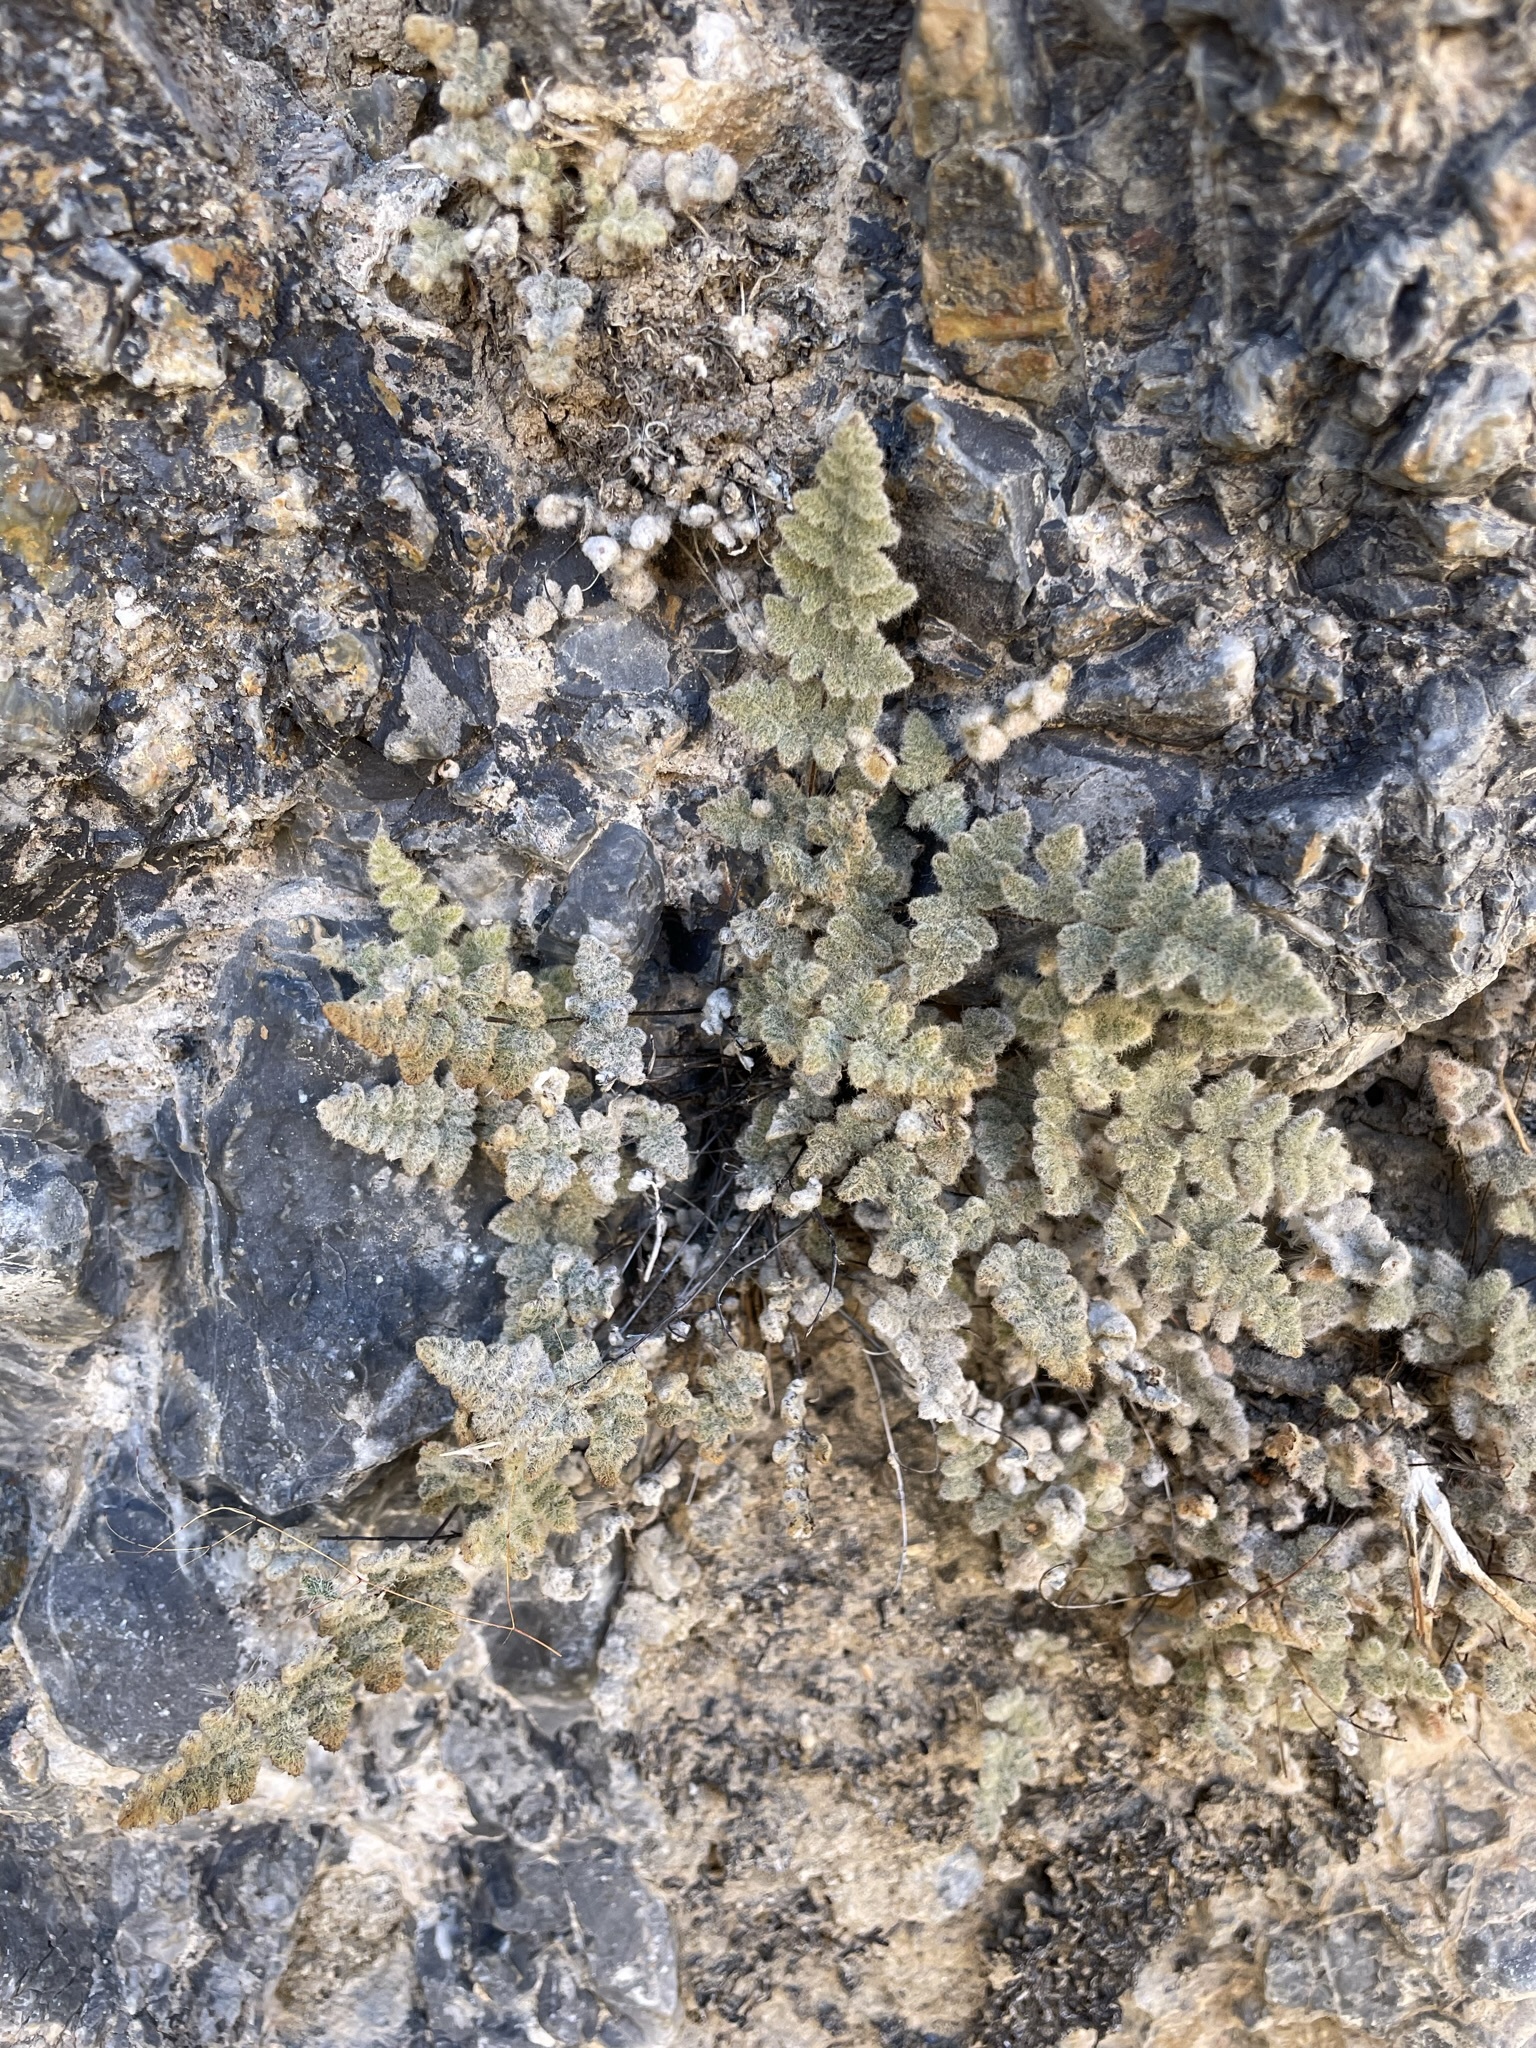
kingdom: Plantae
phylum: Tracheophyta
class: Polypodiopsida
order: Polypodiales
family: Pteridaceae
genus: Myriopteris
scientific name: Myriopteris parryi
